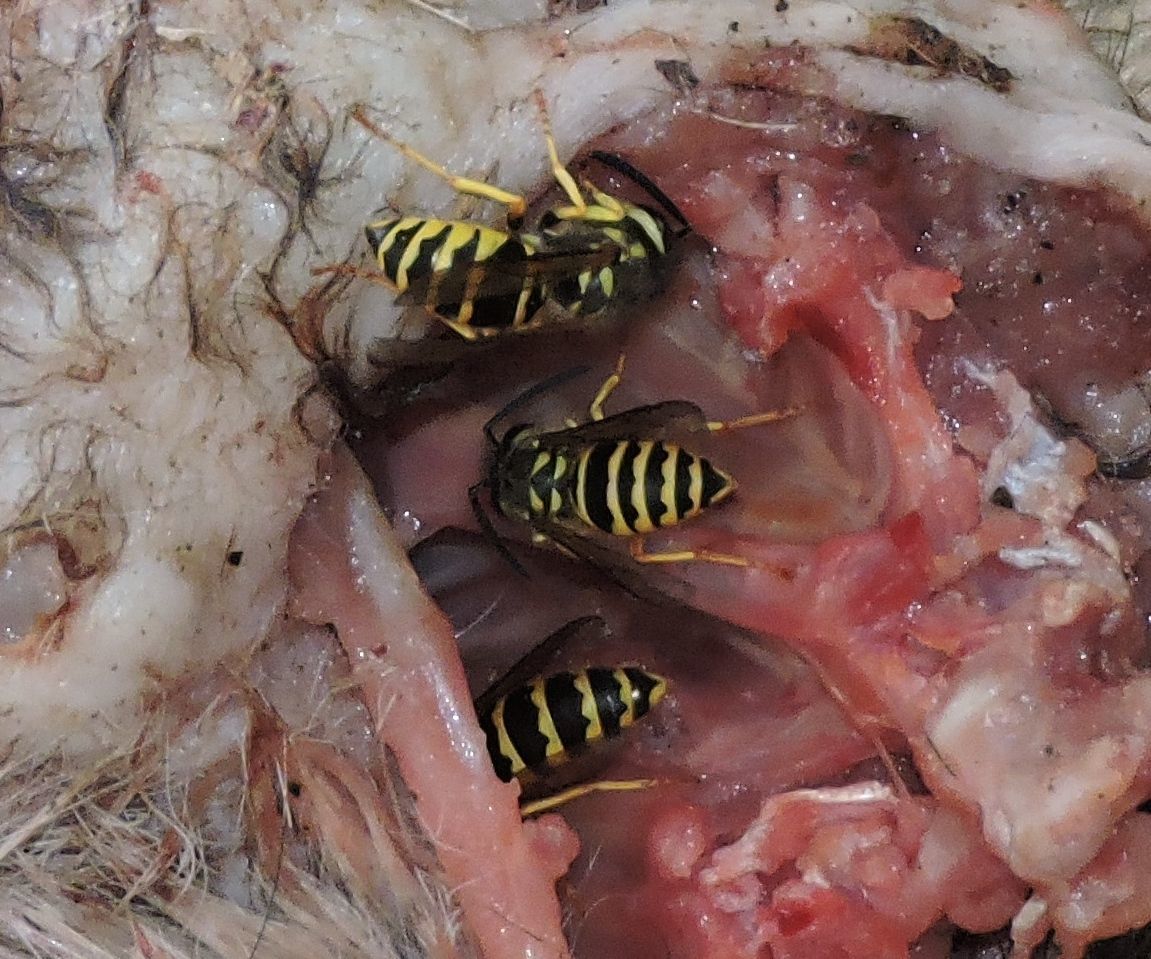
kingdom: Animalia
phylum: Arthropoda
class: Insecta
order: Hymenoptera
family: Vespidae
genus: Vespula
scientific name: Vespula maculifrons
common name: Eastern yellowjacket
